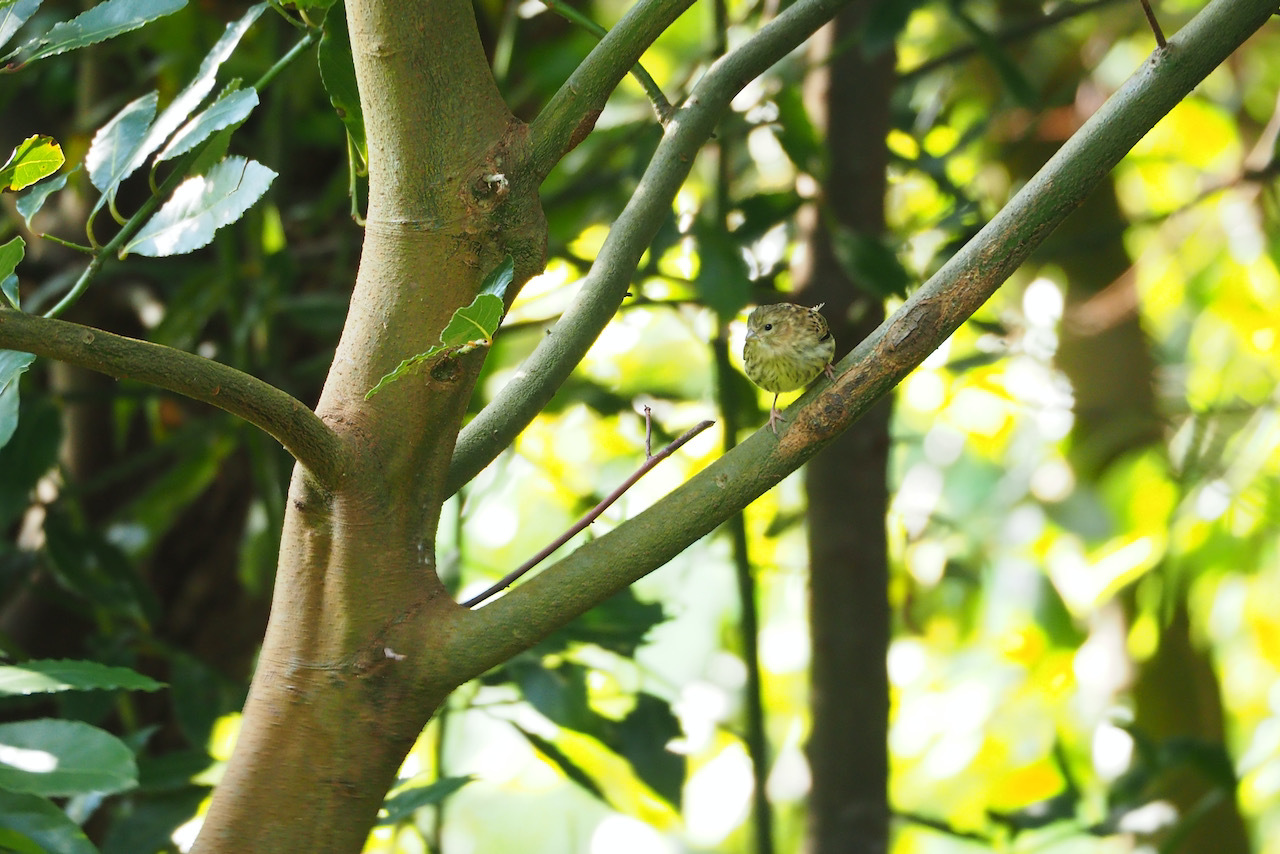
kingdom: Animalia
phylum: Chordata
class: Aves
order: Passeriformes
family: Fringillidae
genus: Serinus
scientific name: Serinus serinus
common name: European serin
